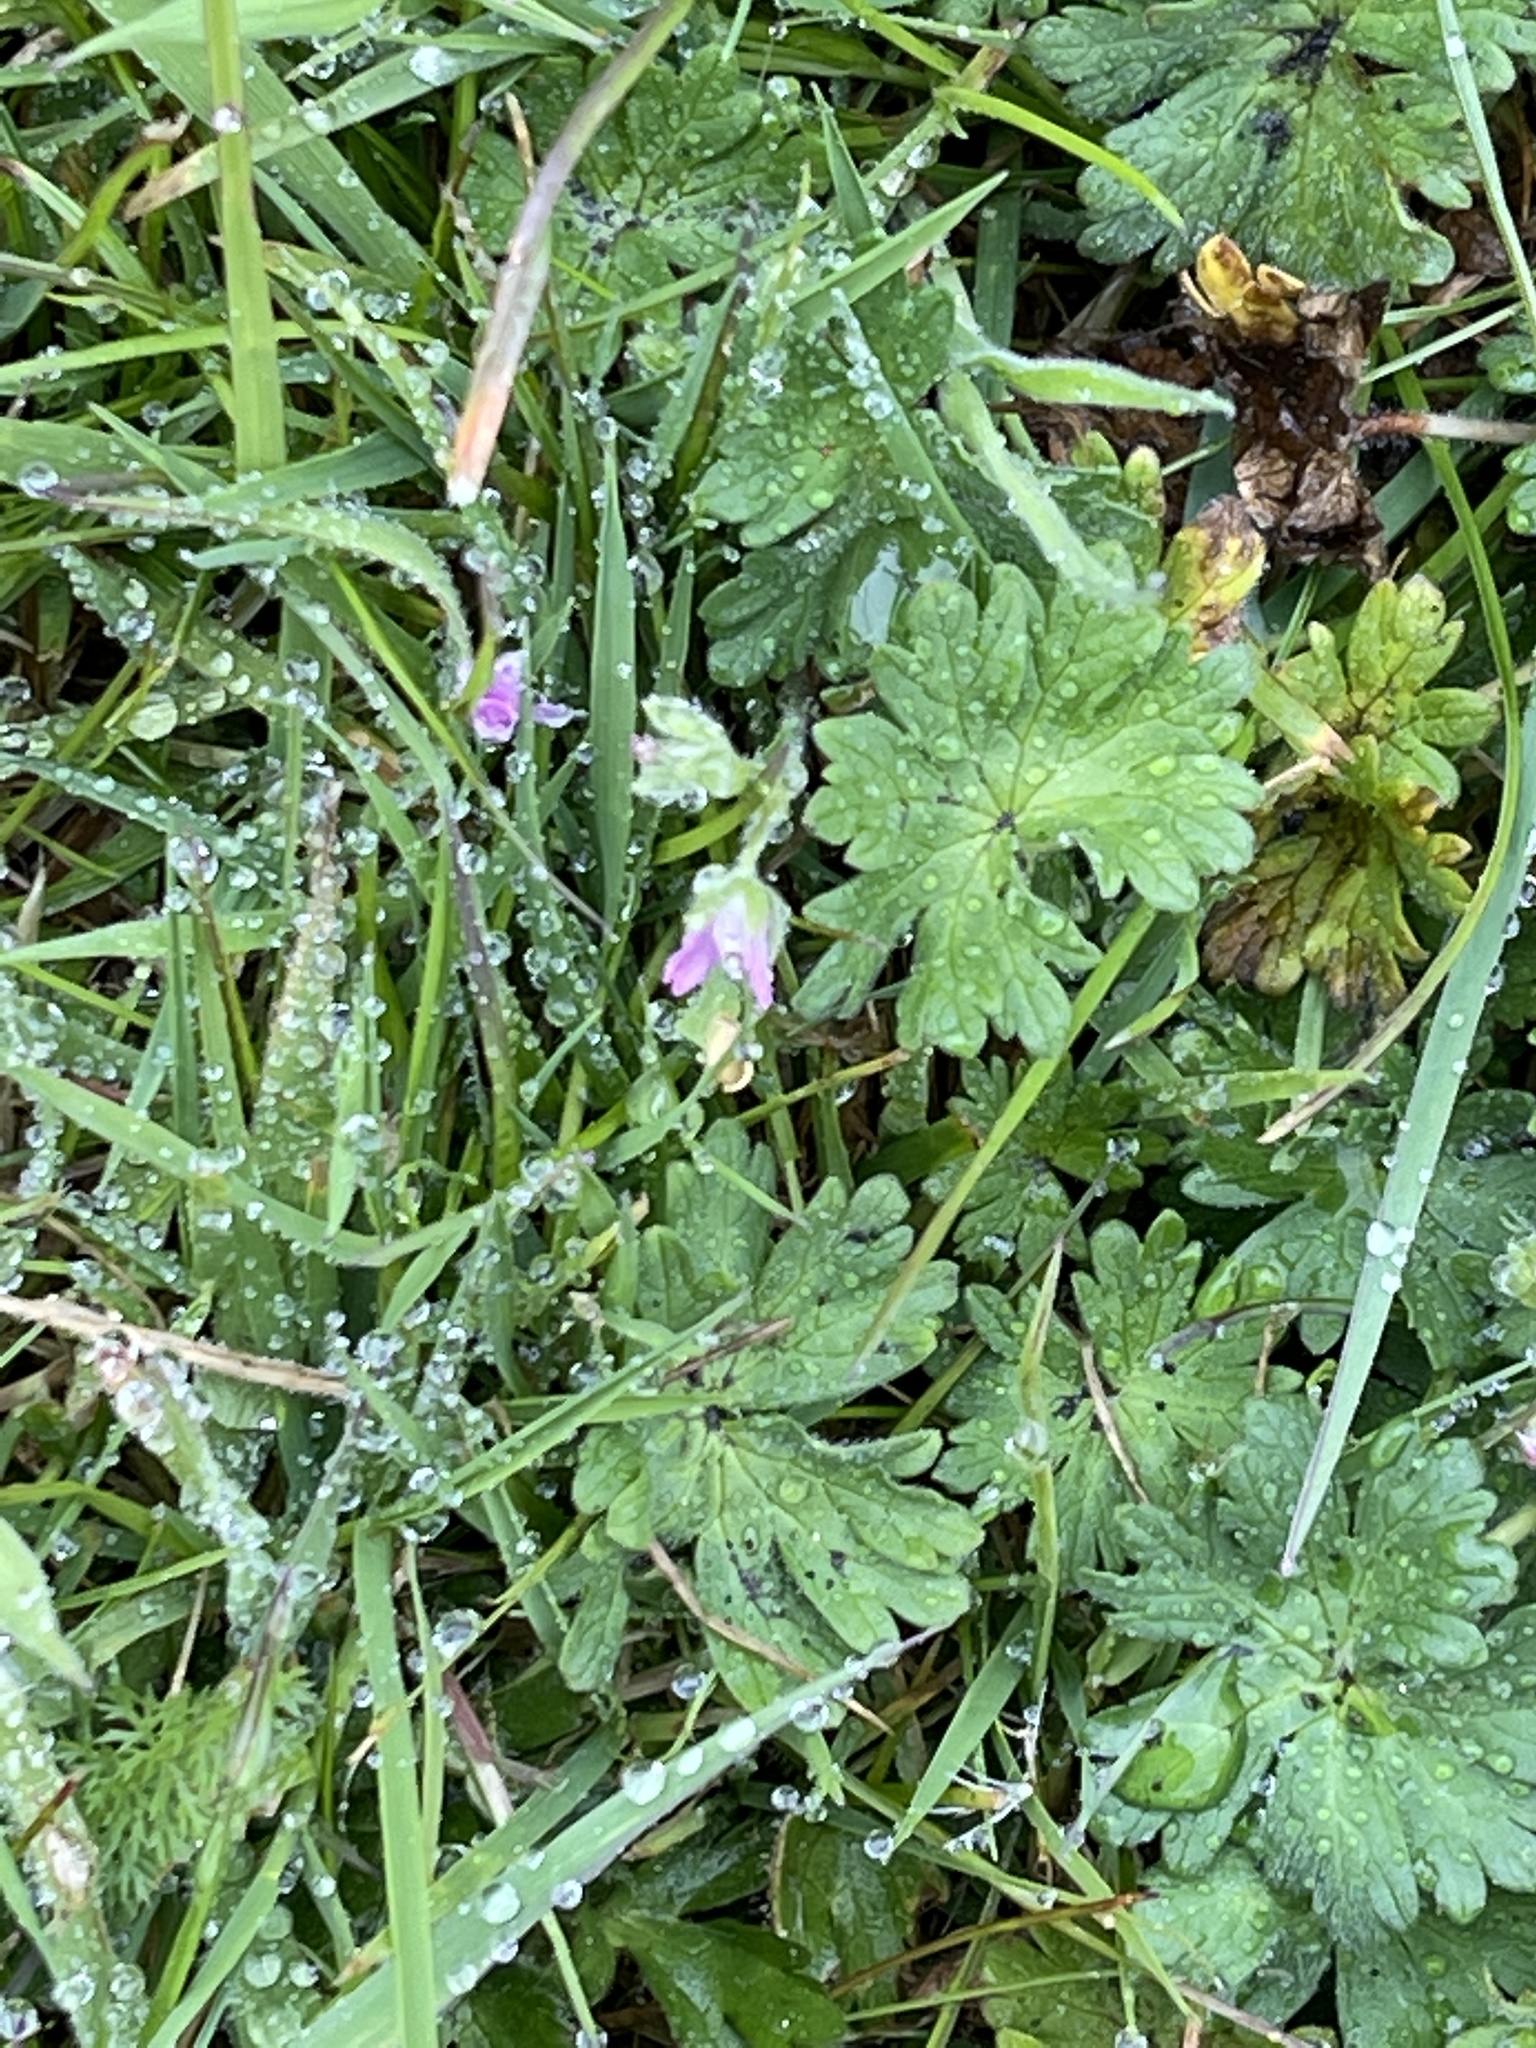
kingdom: Plantae
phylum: Tracheophyta
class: Magnoliopsida
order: Geraniales
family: Geraniaceae
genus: Geranium
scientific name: Geranium molle
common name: Dove's-foot crane's-bill
